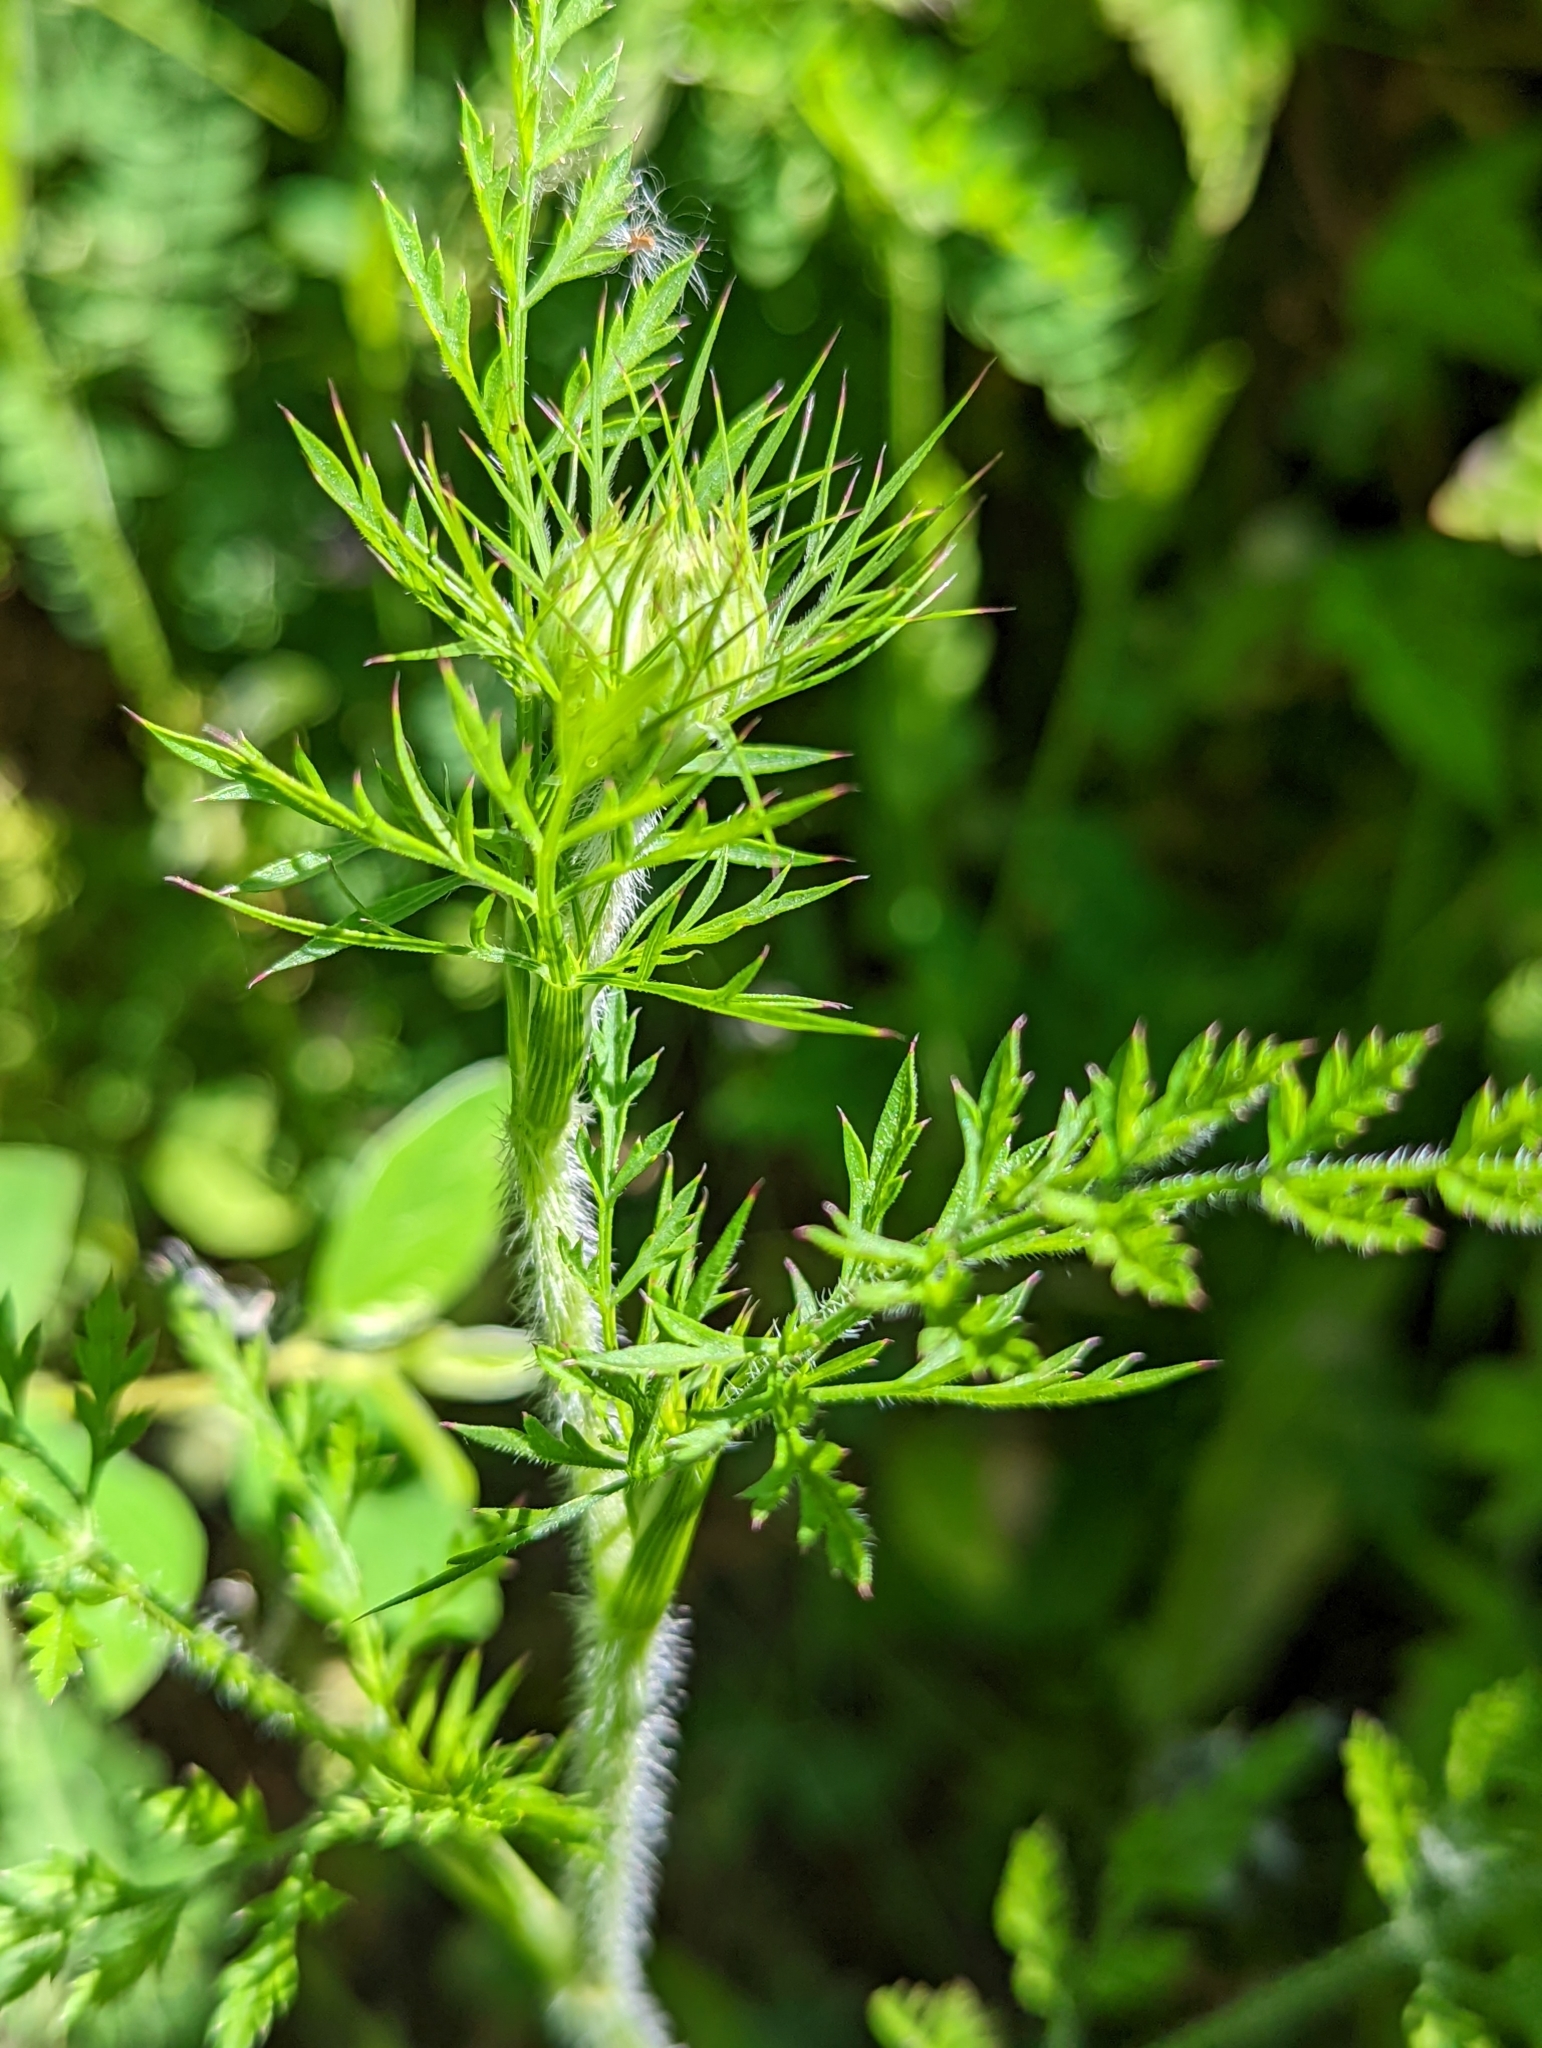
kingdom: Plantae
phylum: Tracheophyta
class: Magnoliopsida
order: Apiales
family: Apiaceae
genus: Daucus
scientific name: Daucus carota
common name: Wild carrot
